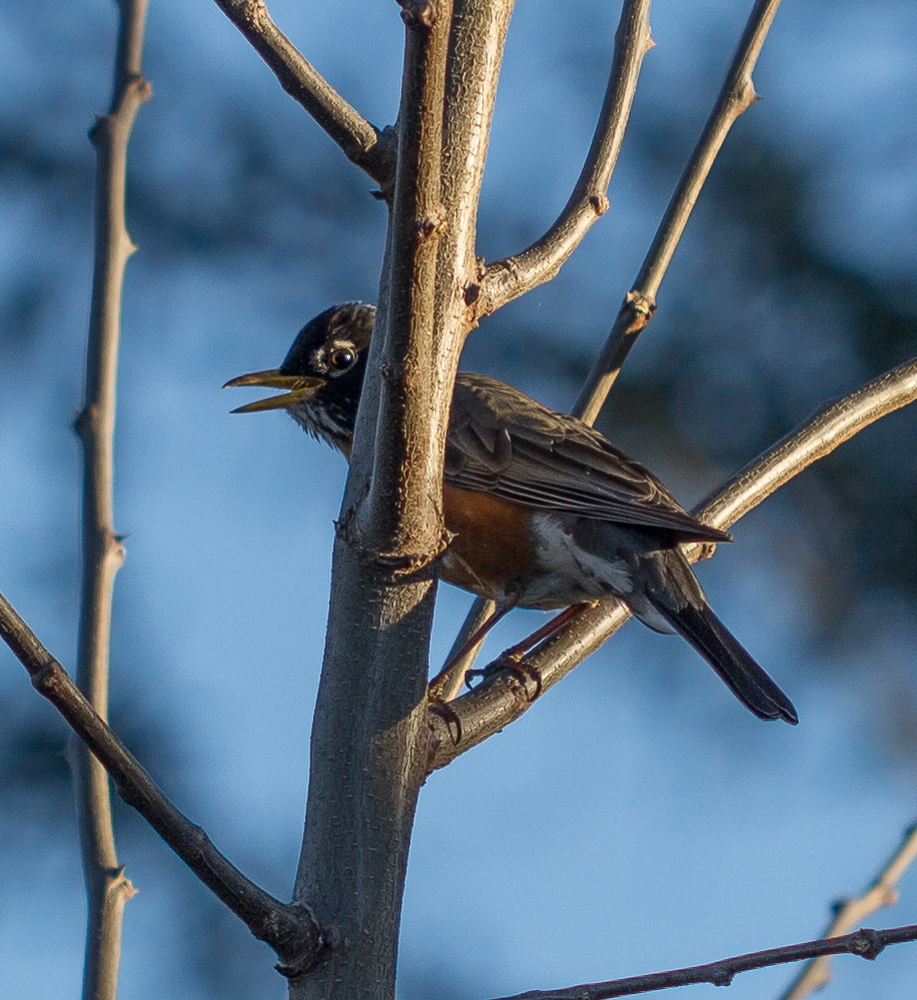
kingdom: Animalia
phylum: Chordata
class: Aves
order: Passeriformes
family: Turdidae
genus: Turdus
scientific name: Turdus migratorius
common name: American robin
